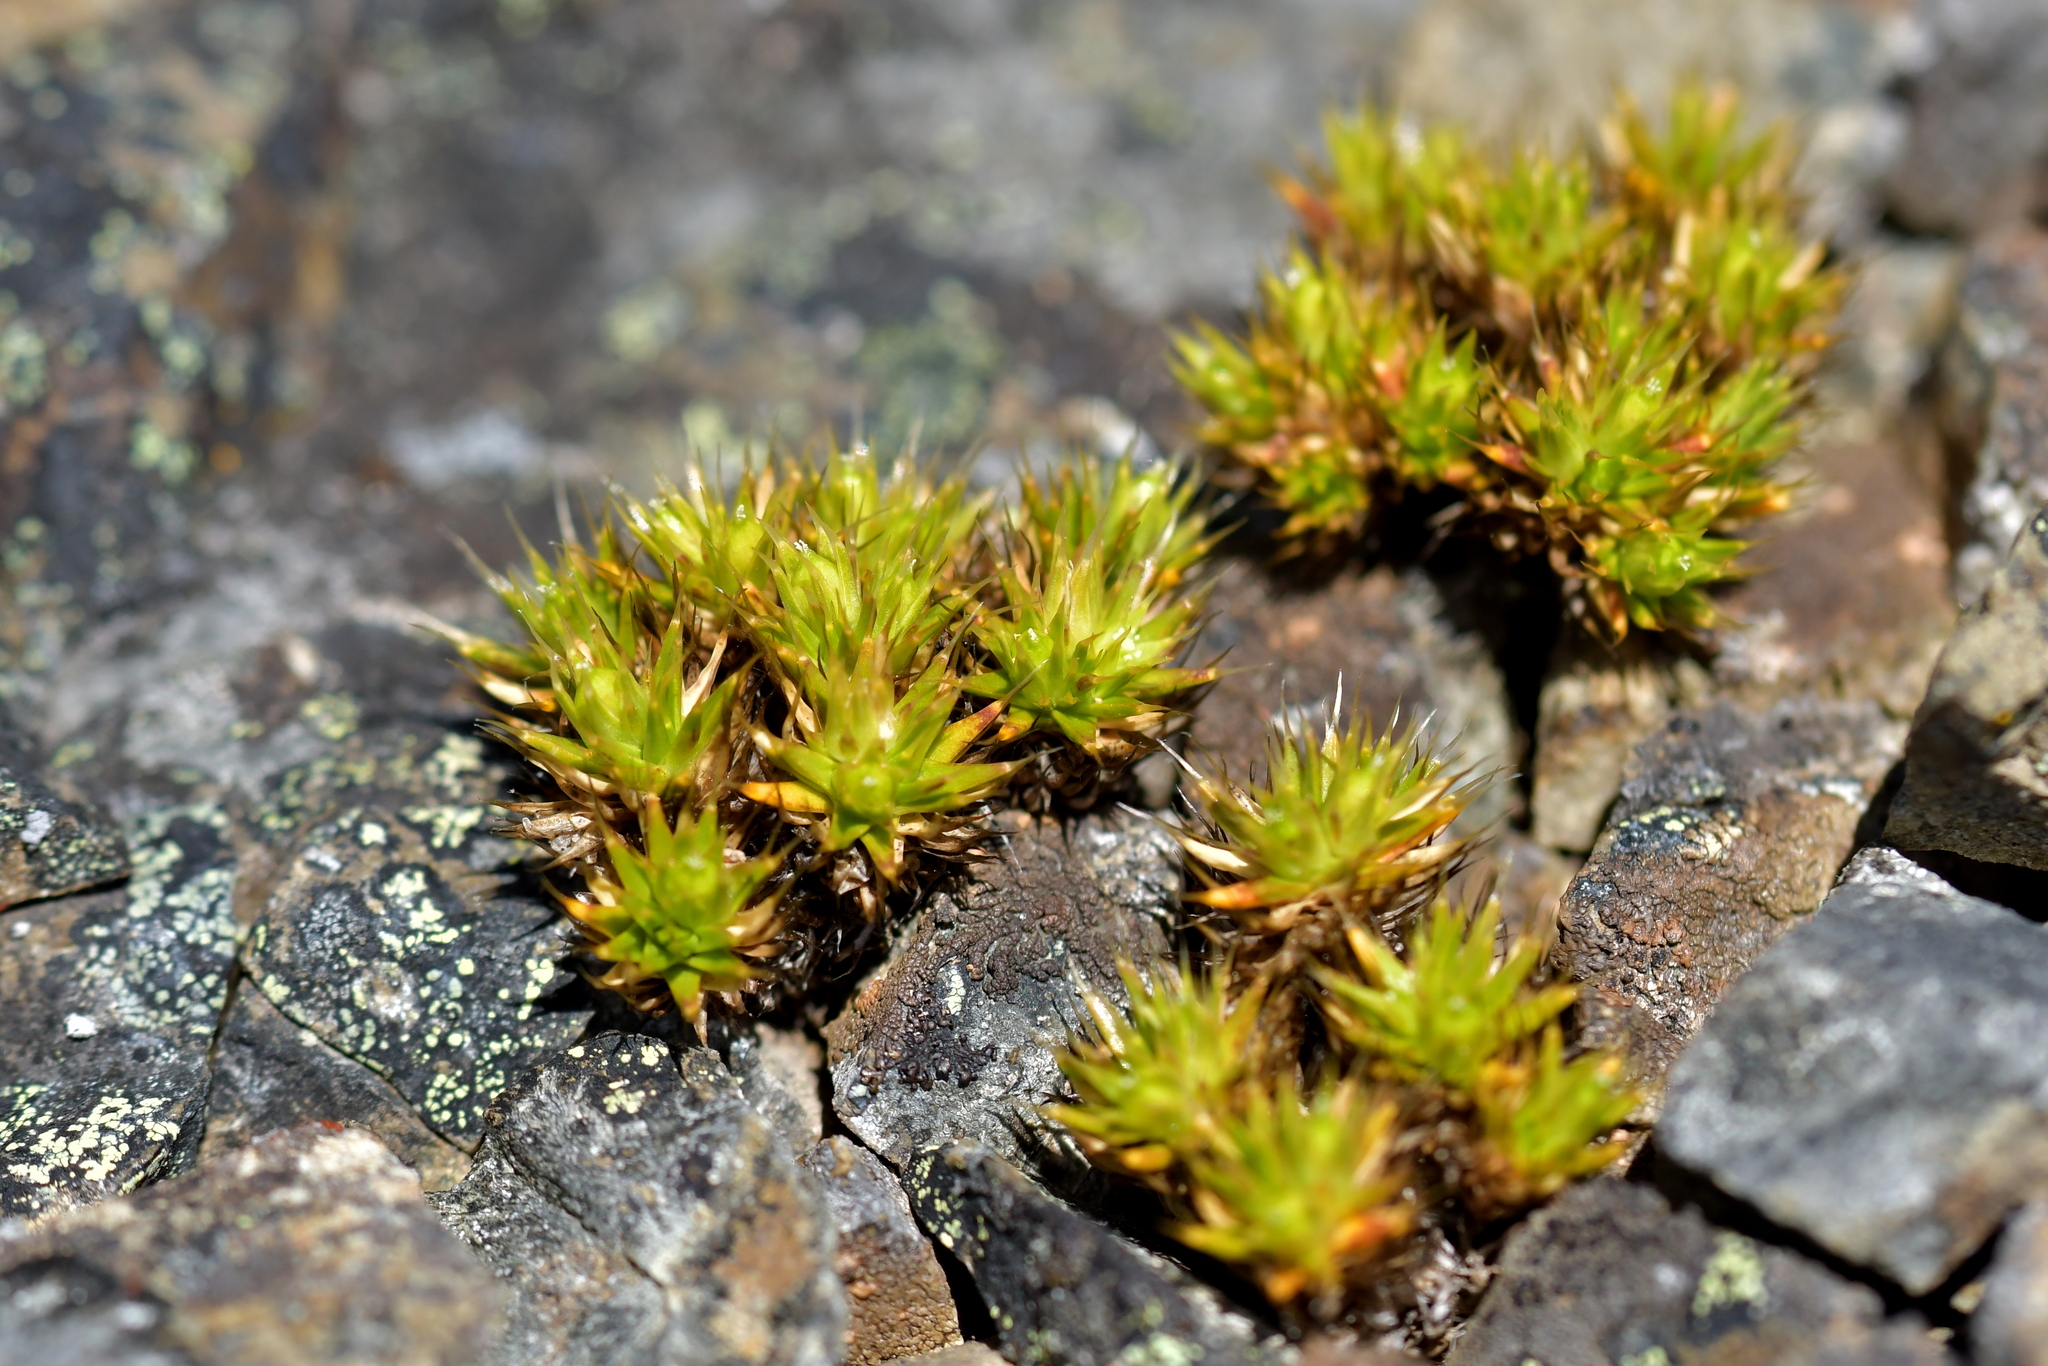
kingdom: Plantae
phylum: Tracheophyta
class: Magnoliopsida
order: Caryophyllales
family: Caryophyllaceae
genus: Colobanthus
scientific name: Colobanthus acicularis
